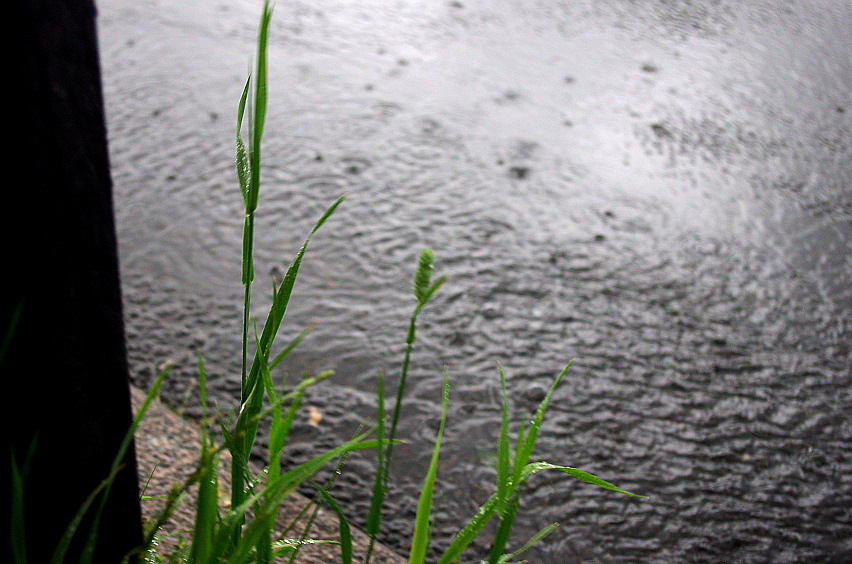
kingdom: Plantae
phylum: Tracheophyta
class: Liliopsida
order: Poales
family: Poaceae
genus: Phleum
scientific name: Phleum pratense
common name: Timothy grass
